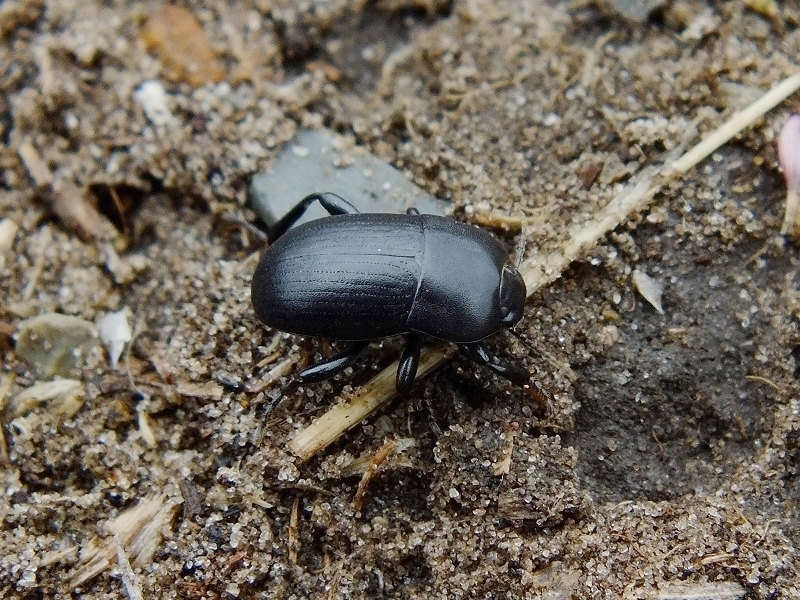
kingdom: Animalia
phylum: Arthropoda
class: Insecta
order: Coleoptera
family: Tenebrionidae
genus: Pedinus
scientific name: Pedinus femoralis
